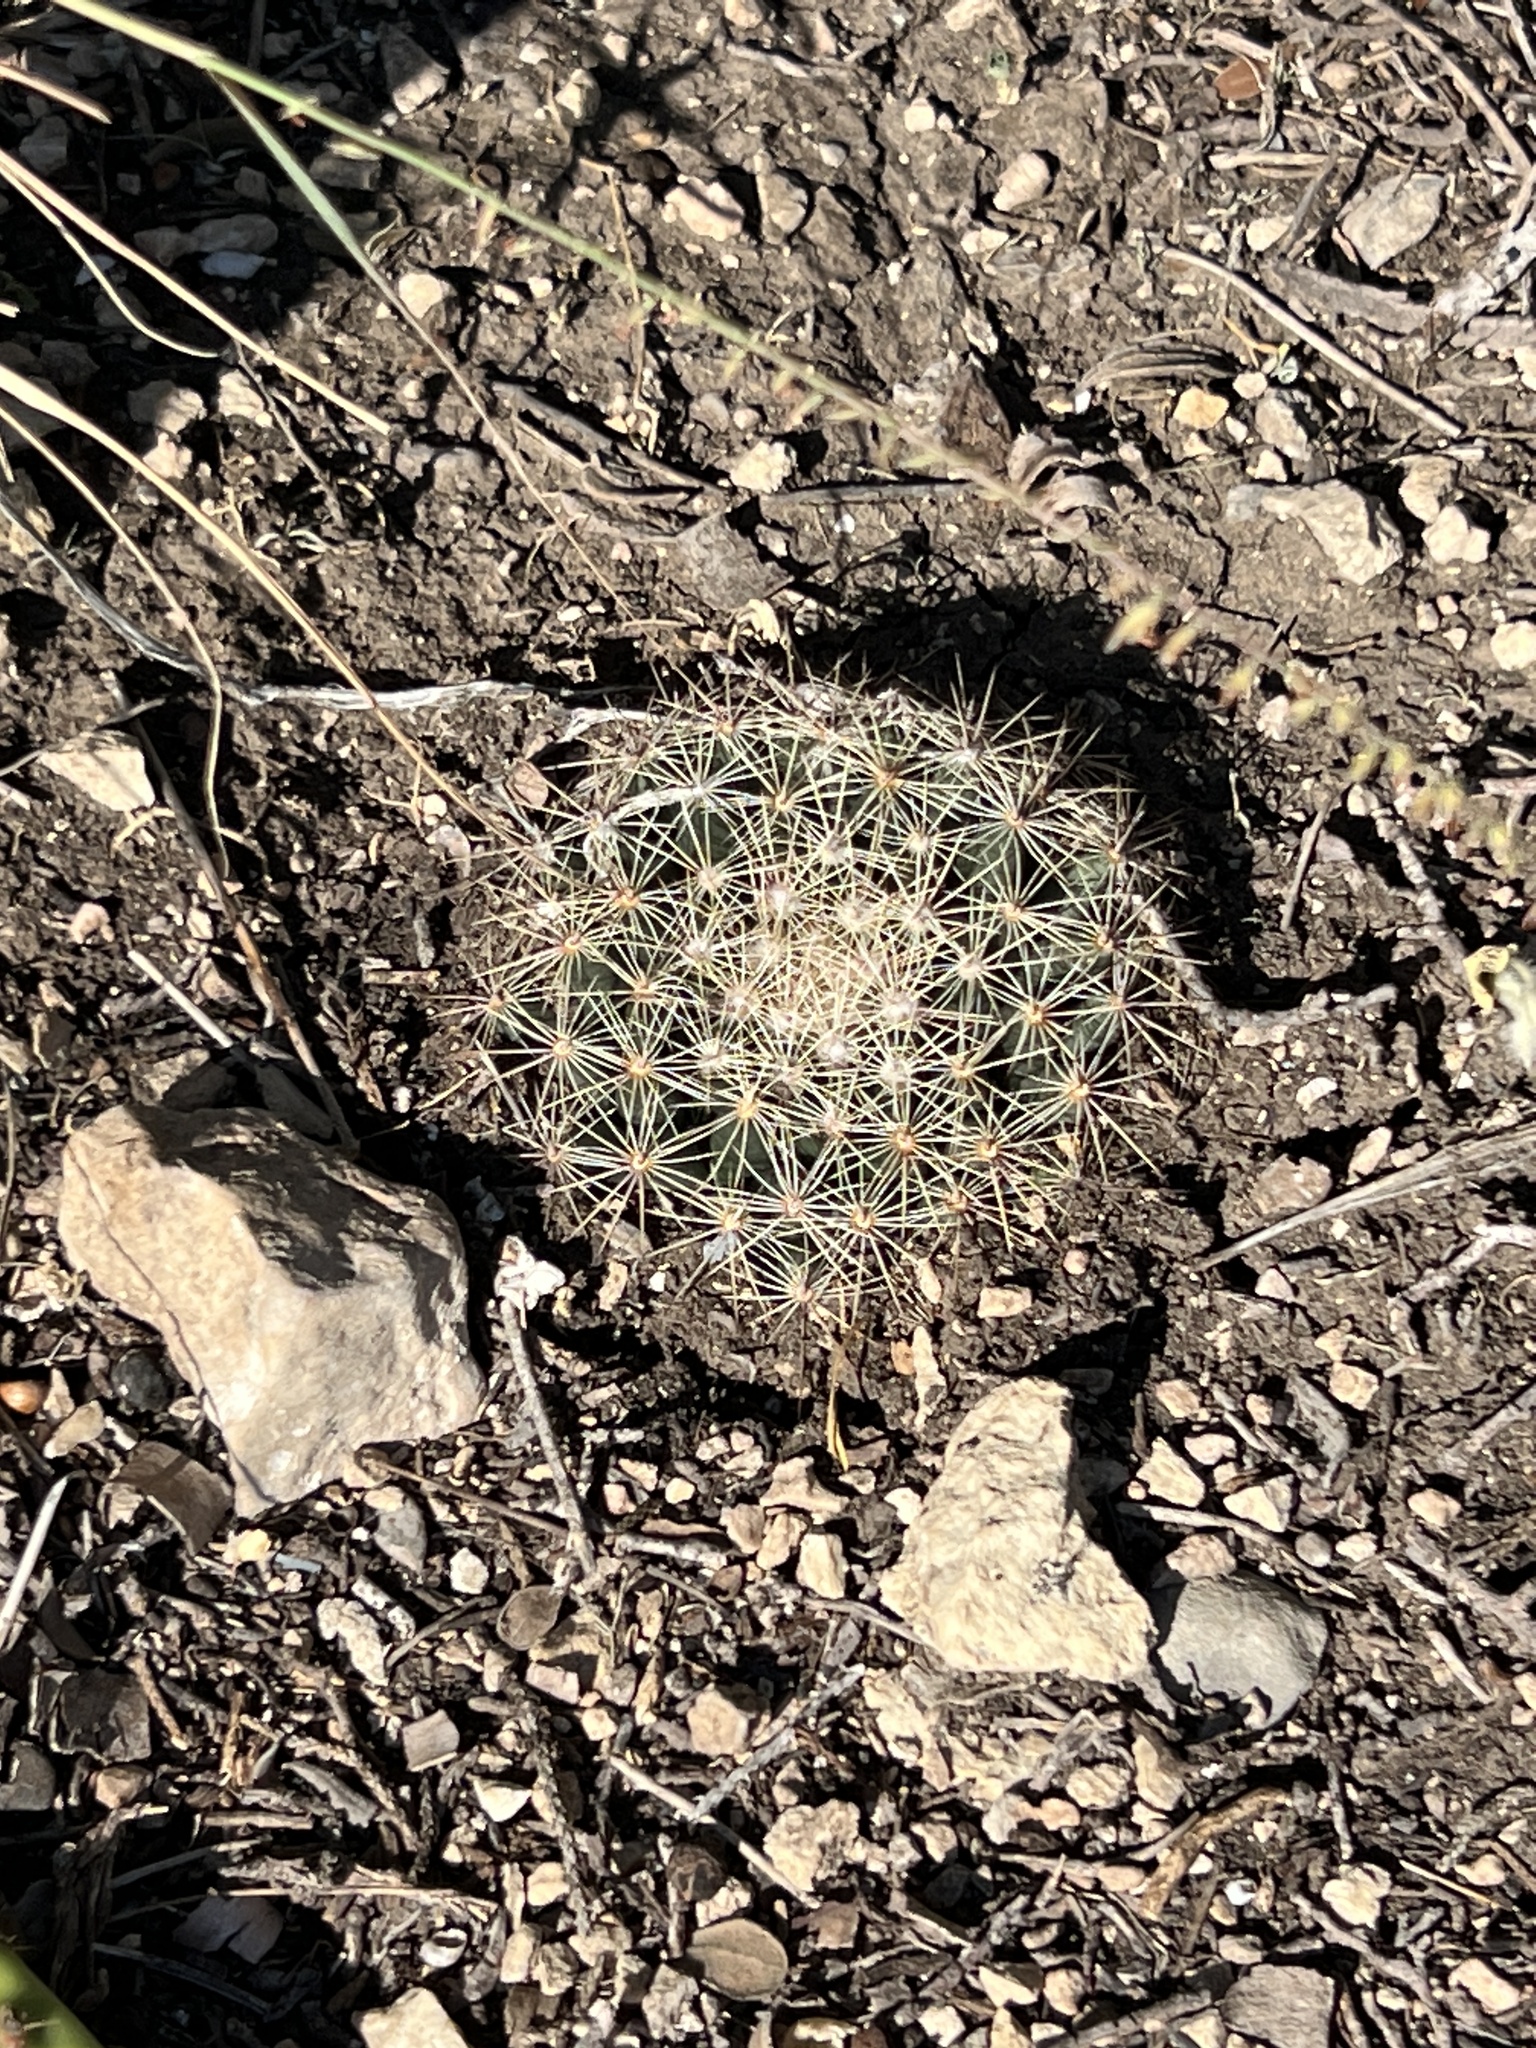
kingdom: Plantae
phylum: Tracheophyta
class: Magnoliopsida
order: Caryophyllales
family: Cactaceae
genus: Mammillaria
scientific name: Mammillaria heyderi
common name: Little nipple cactus
